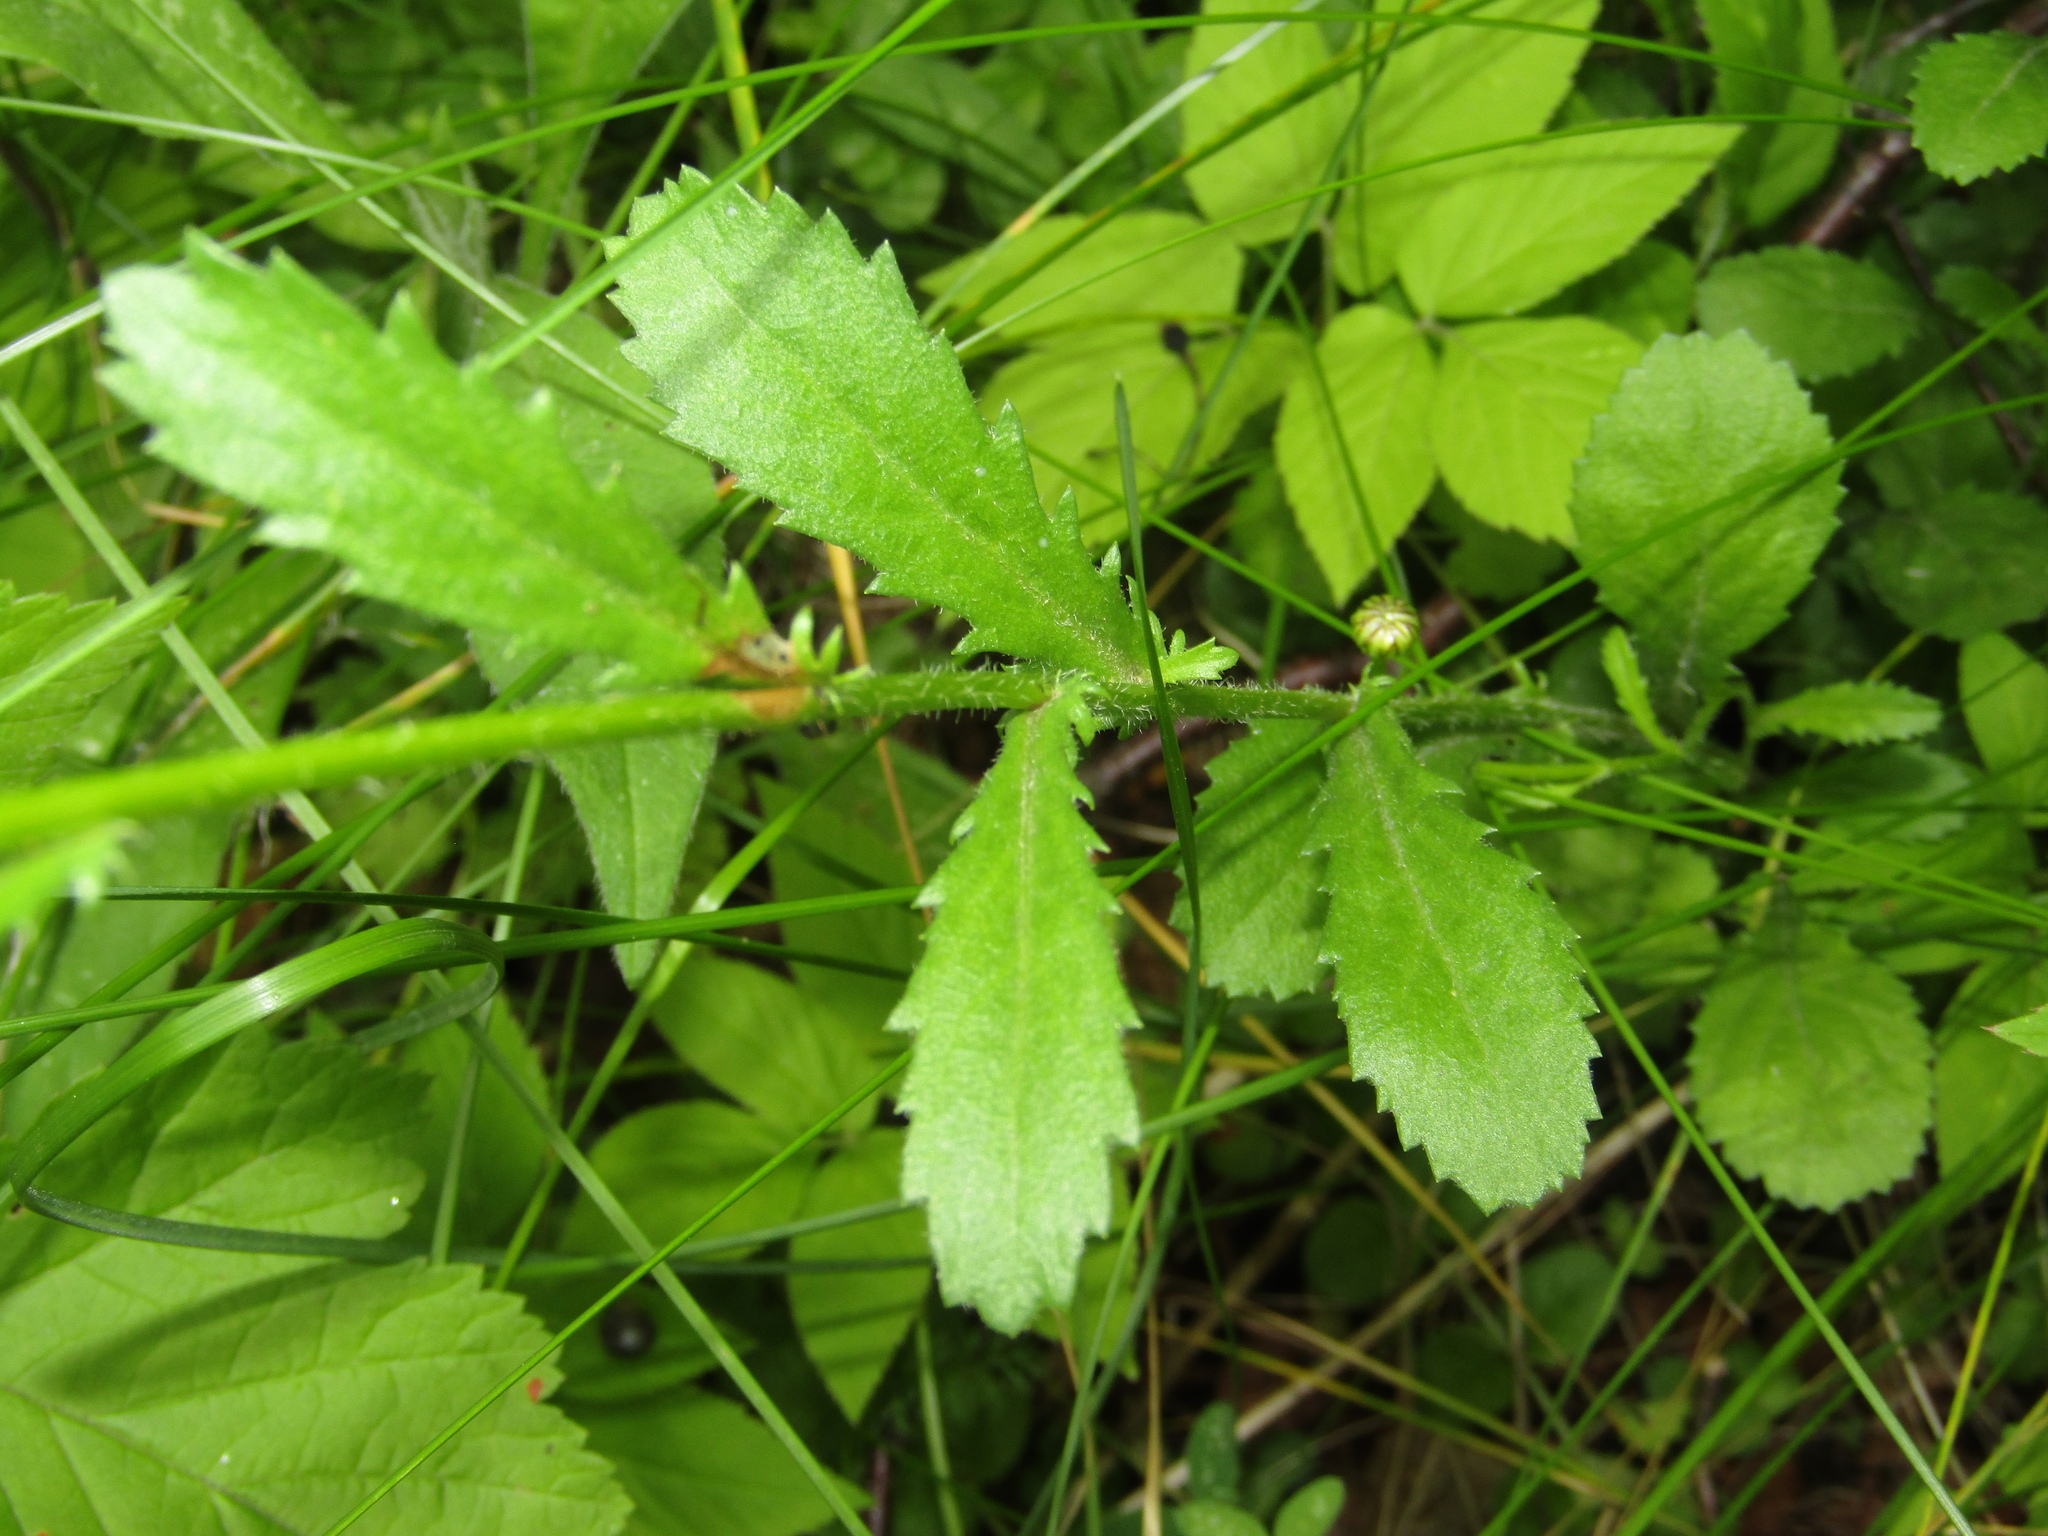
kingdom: Plantae
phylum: Tracheophyta
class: Magnoliopsida
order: Asterales
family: Asteraceae
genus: Leucanthemum
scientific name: Leucanthemum vulgare
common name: Oxeye daisy
